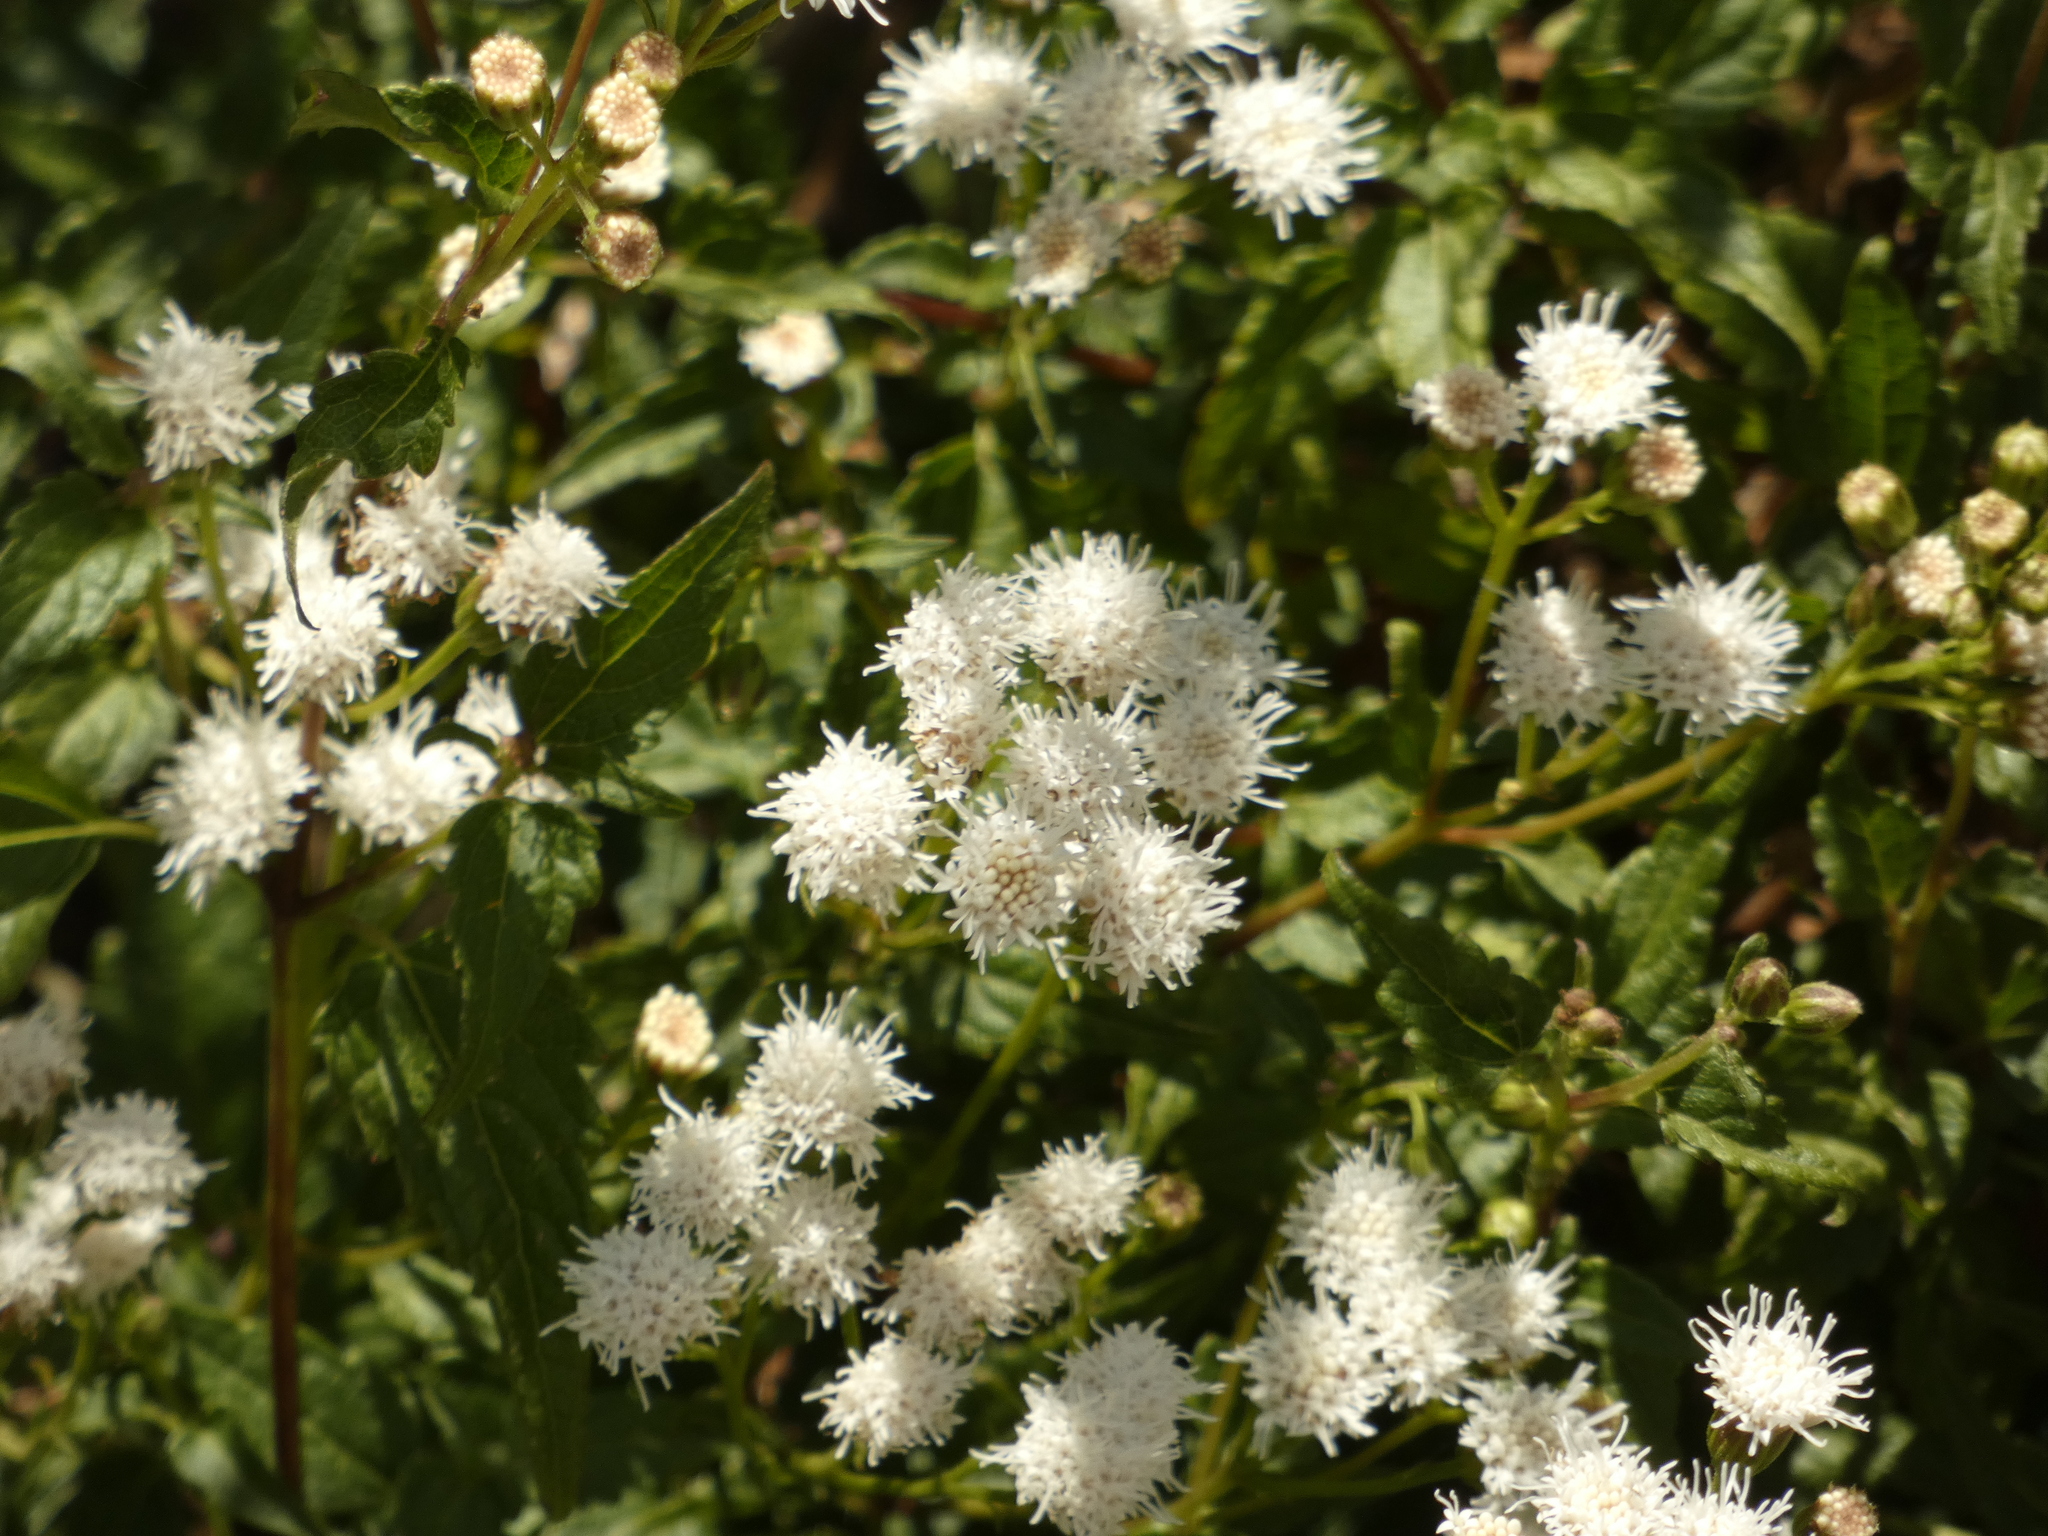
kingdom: Plantae
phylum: Tracheophyta
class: Magnoliopsida
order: Asterales
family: Asteraceae
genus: Ageratina
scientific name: Ageratina glechonophylla
